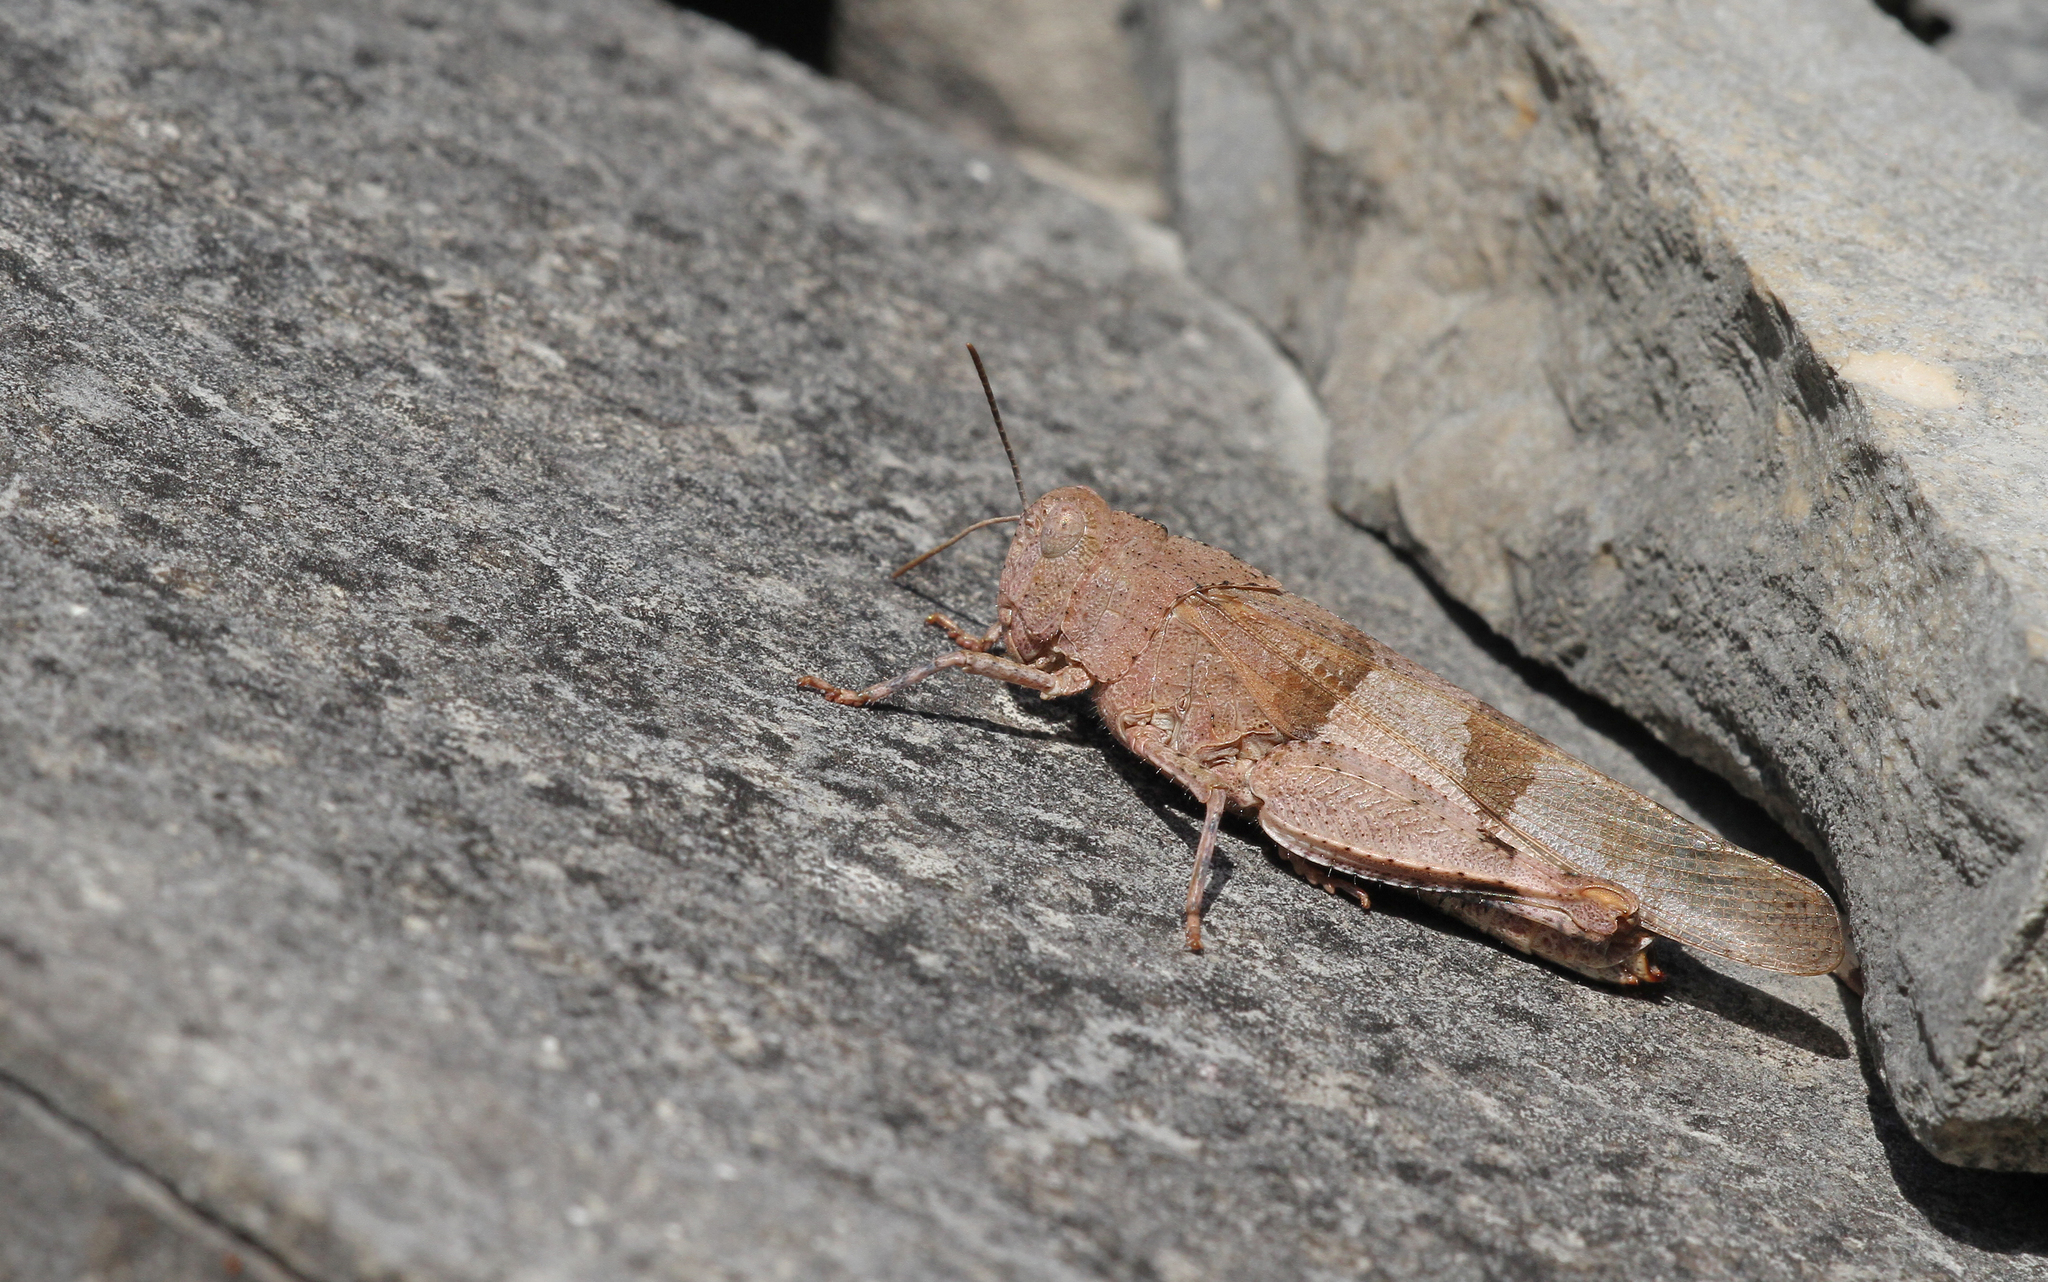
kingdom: Animalia
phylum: Arthropoda
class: Insecta
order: Orthoptera
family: Acrididae
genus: Oedipoda
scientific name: Oedipoda caerulescens
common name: Blue-winged grasshopper
